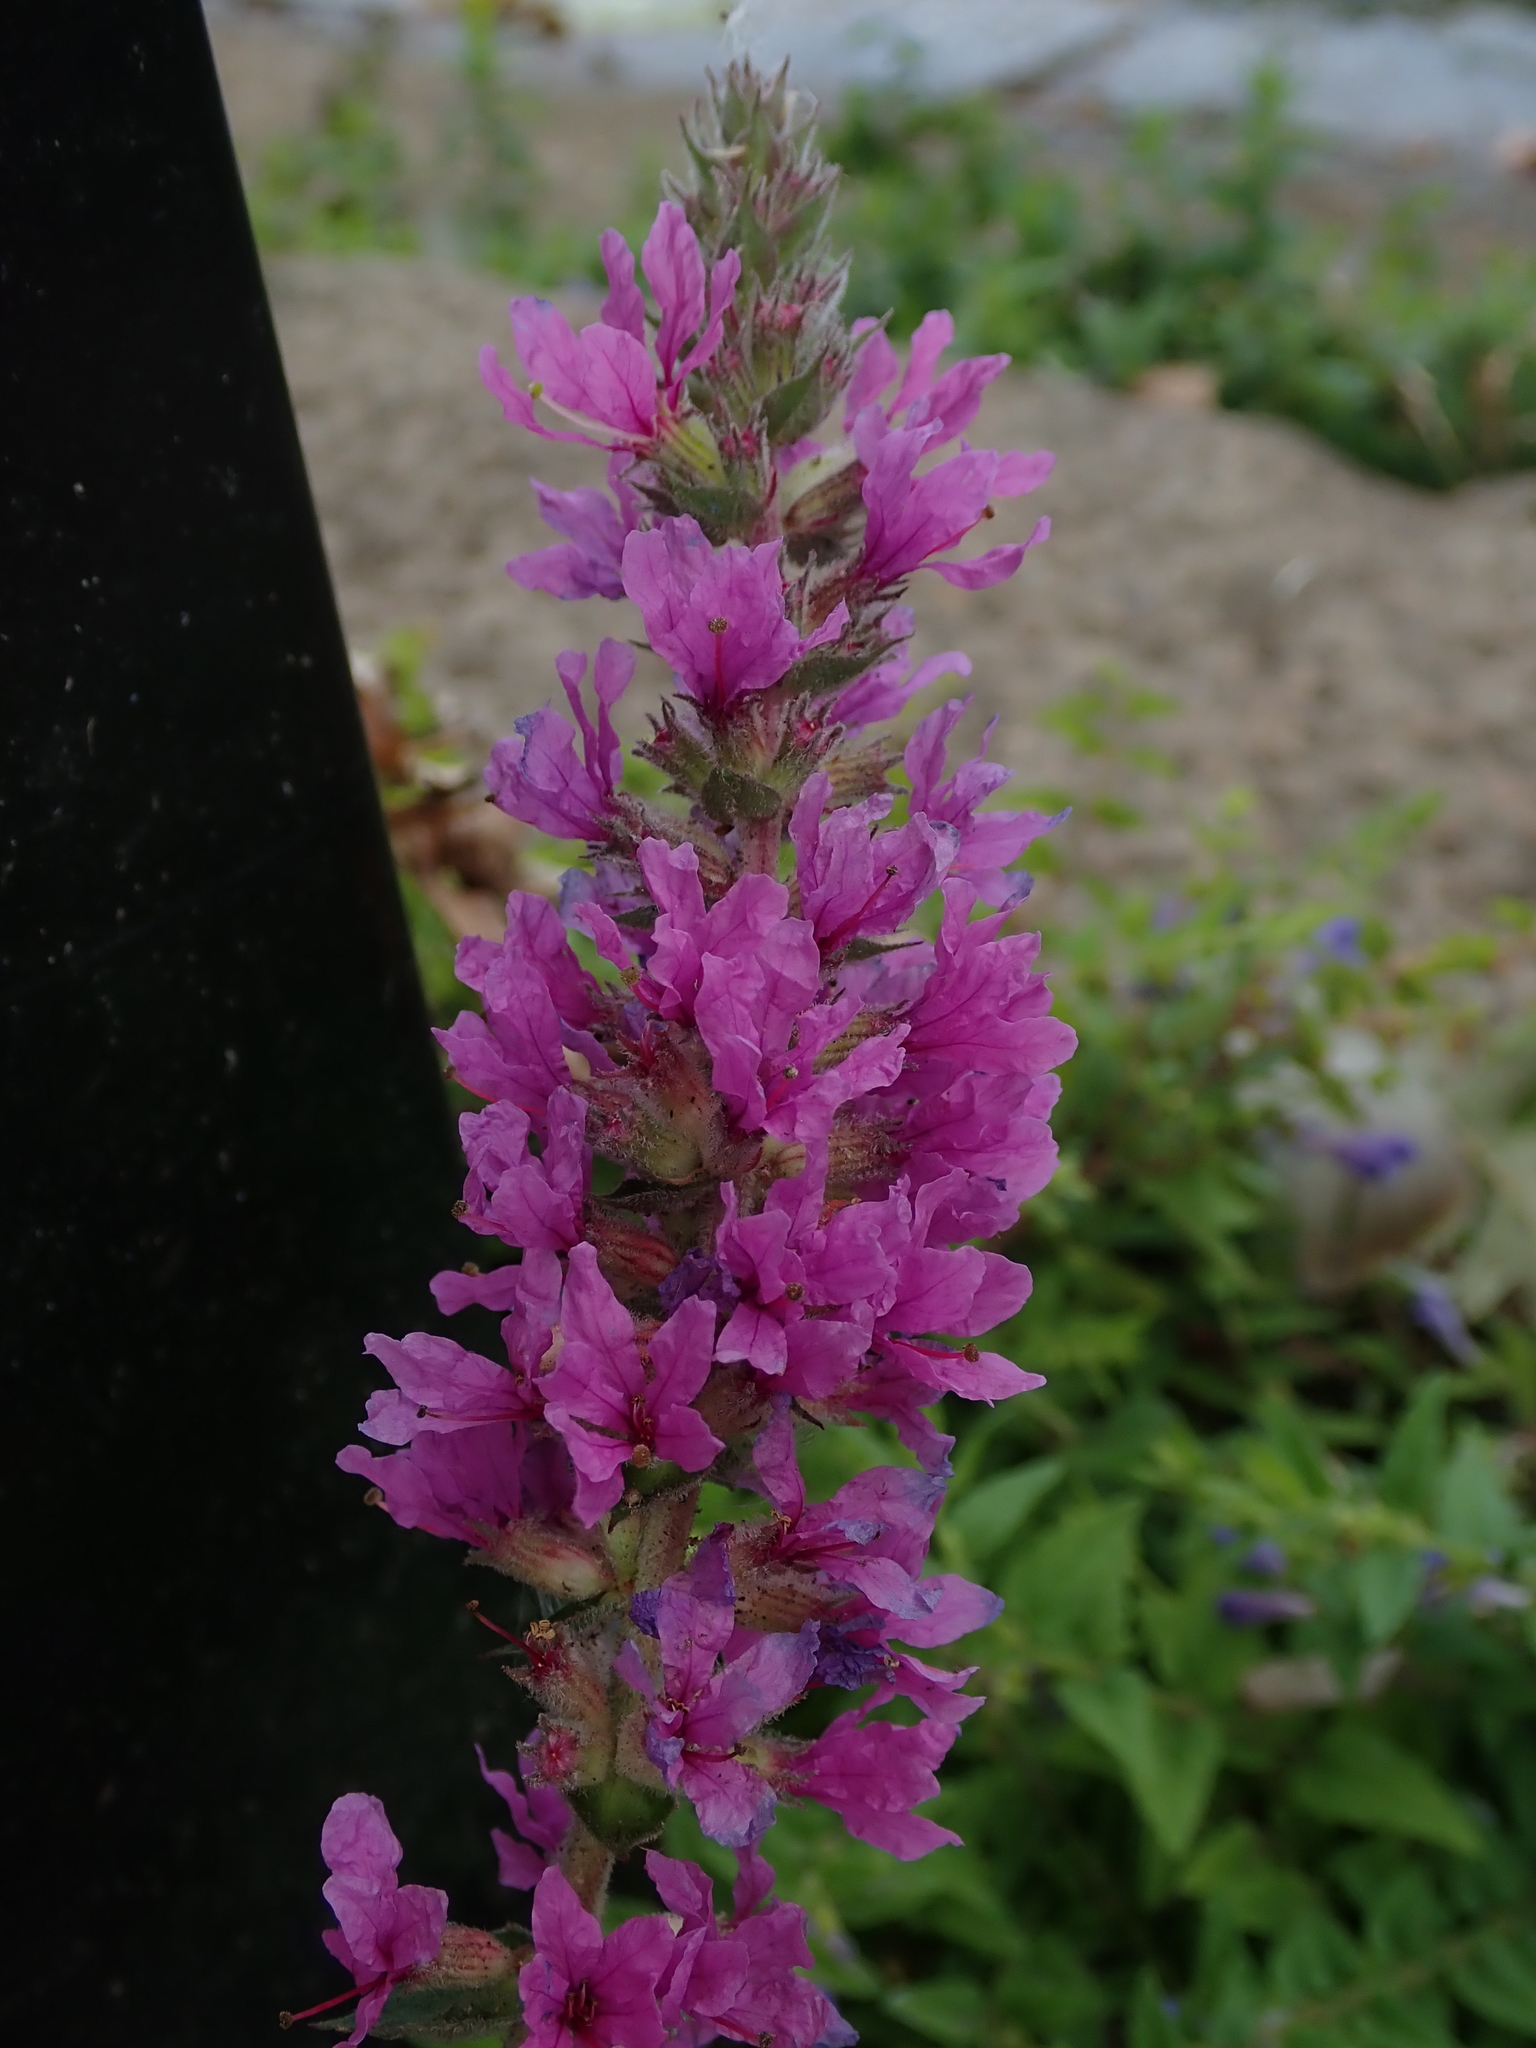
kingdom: Plantae
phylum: Tracheophyta
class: Magnoliopsida
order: Myrtales
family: Lythraceae
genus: Lythrum
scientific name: Lythrum salicaria
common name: Purple loosestrife
